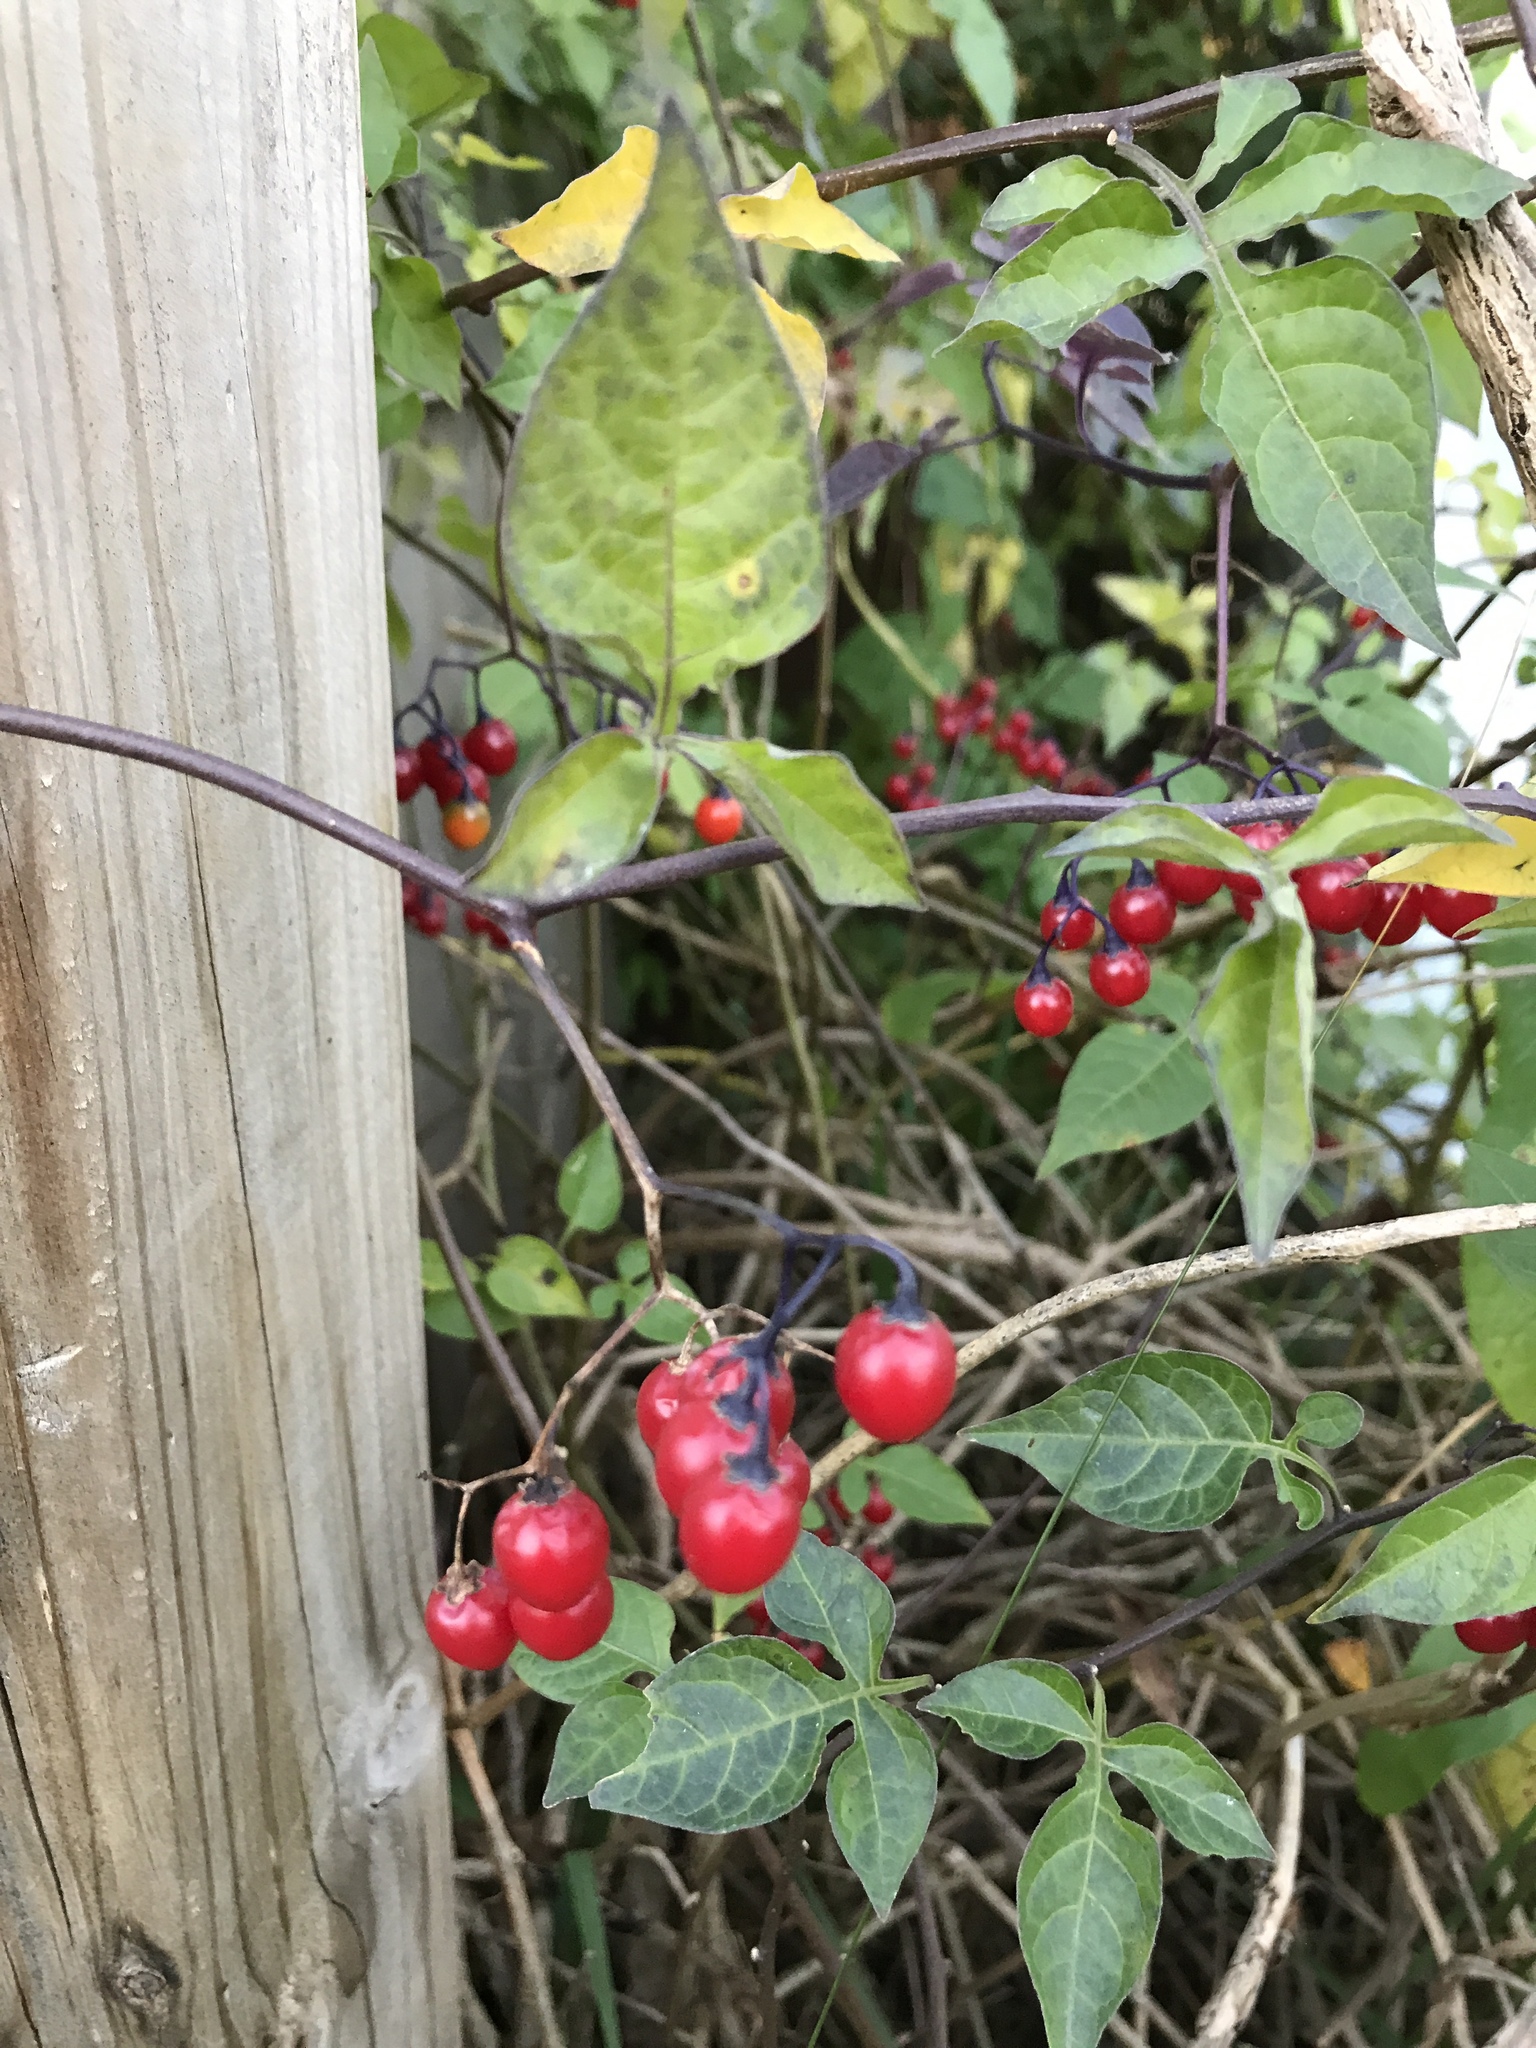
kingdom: Plantae
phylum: Tracheophyta
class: Magnoliopsida
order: Solanales
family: Solanaceae
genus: Solanum
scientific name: Solanum dulcamara
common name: Climbing nightshade
